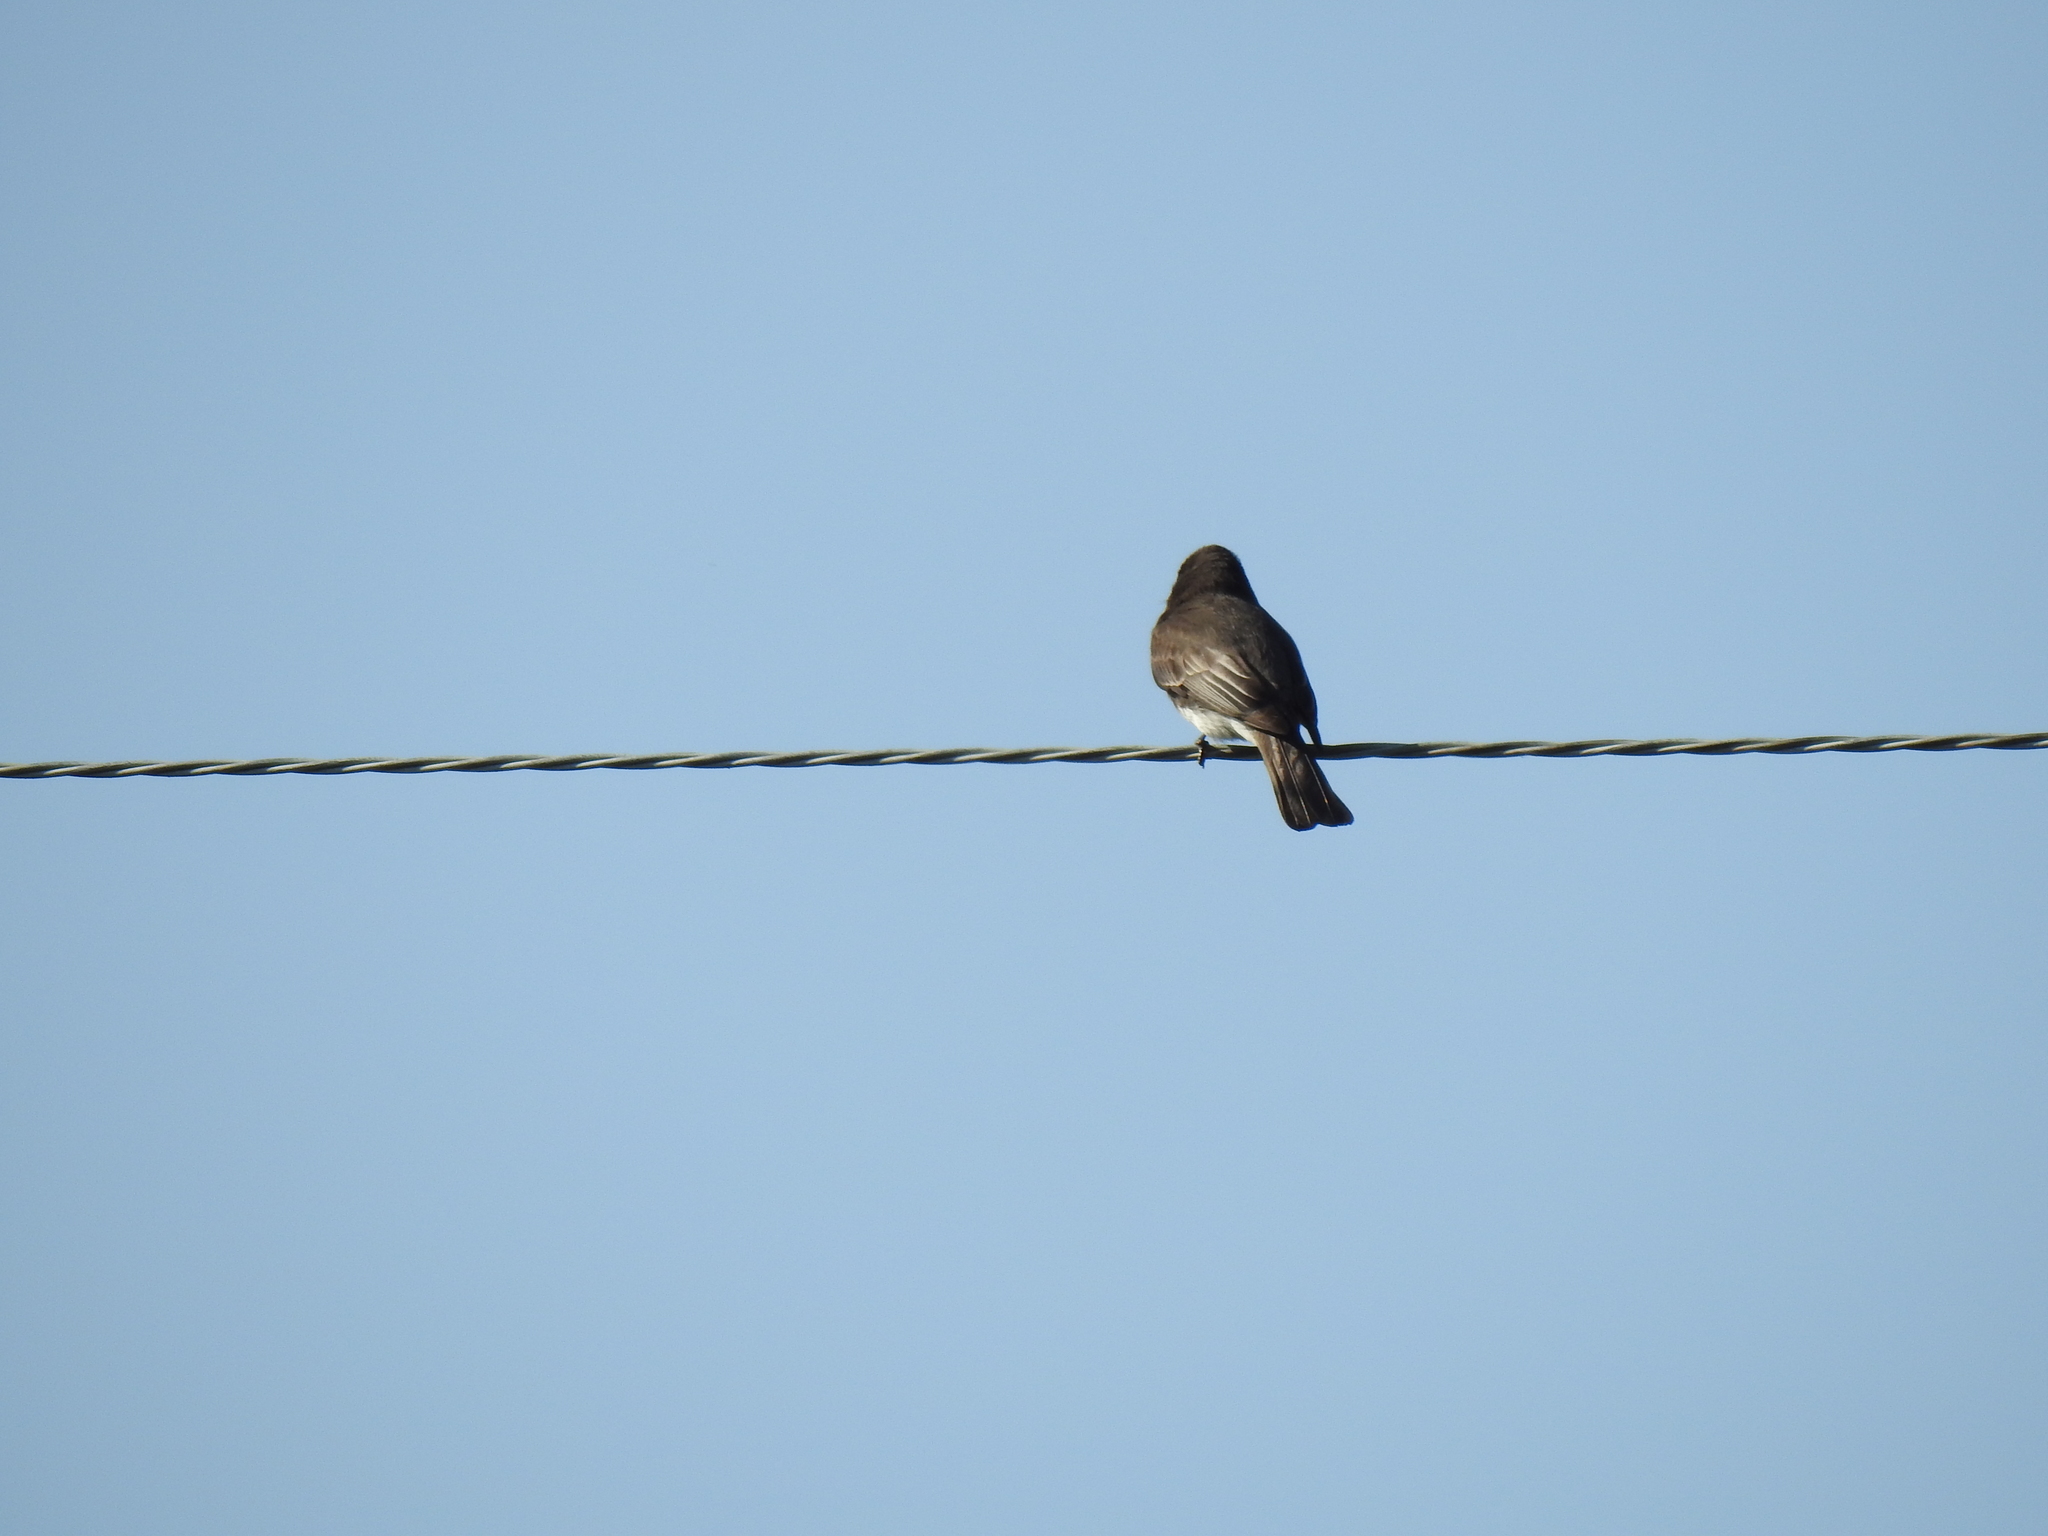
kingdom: Animalia
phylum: Chordata
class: Aves
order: Passeriformes
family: Tyrannidae
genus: Sayornis
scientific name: Sayornis nigricans
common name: Black phoebe
